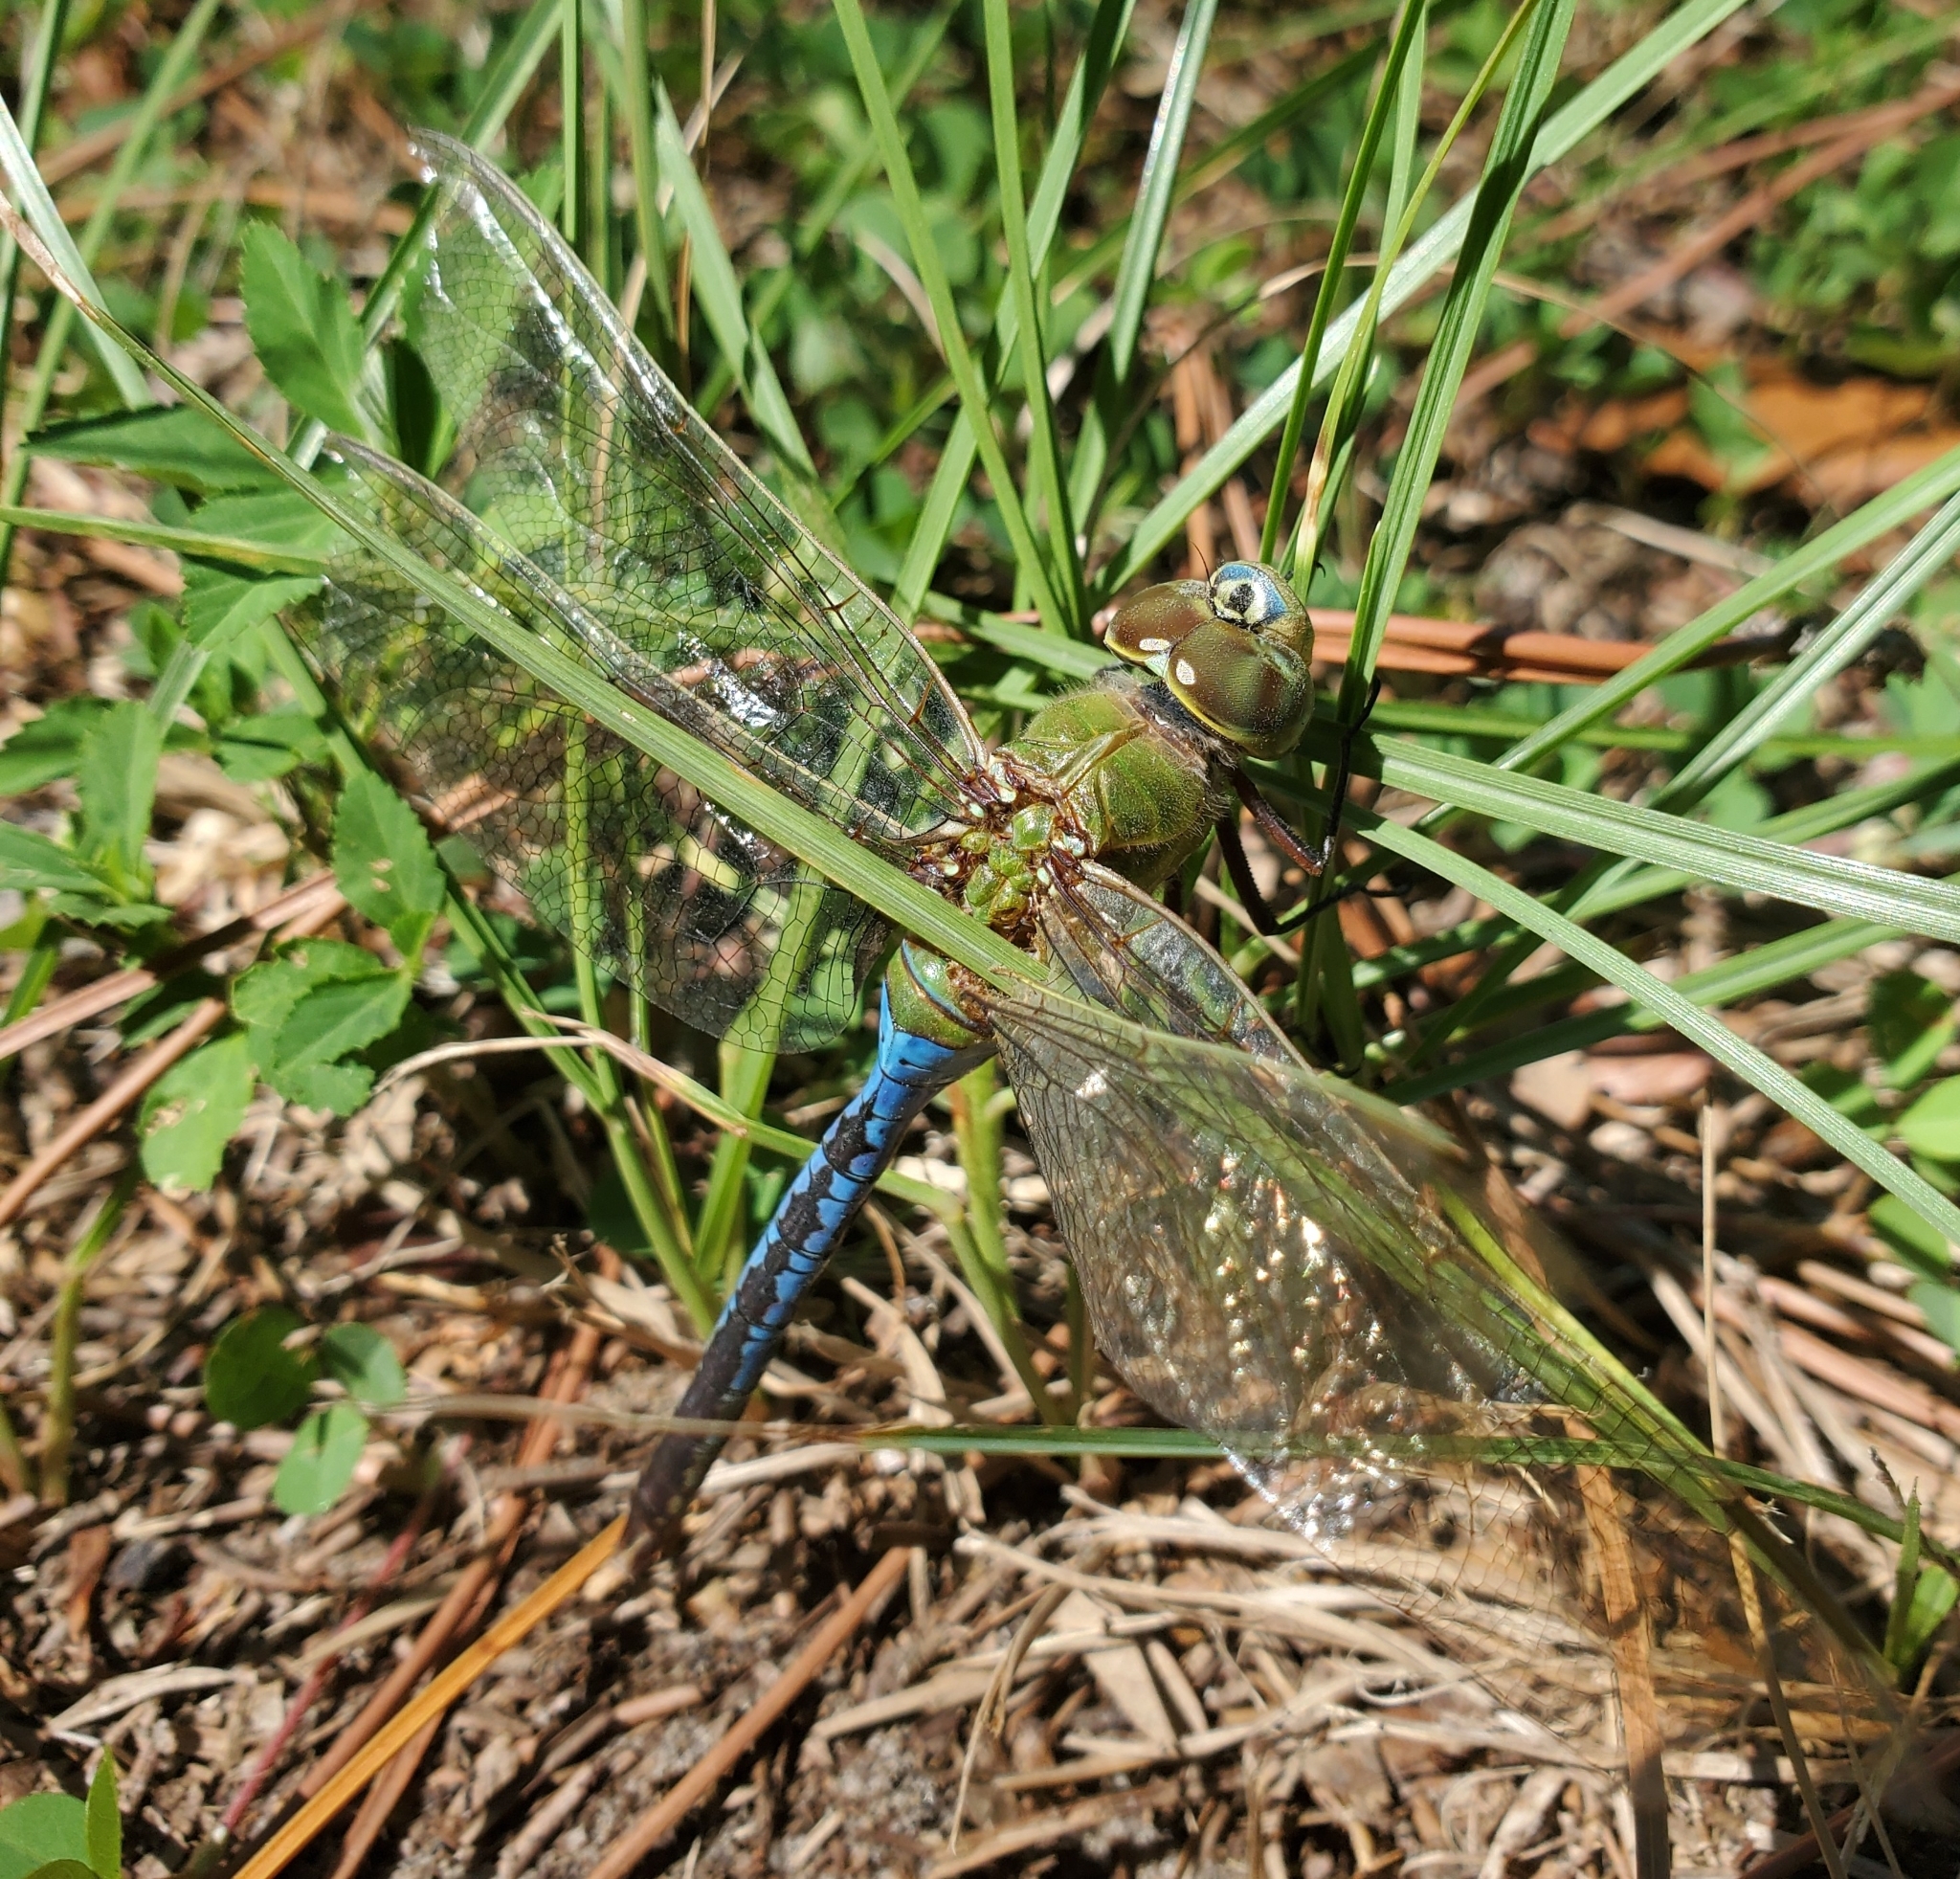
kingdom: Animalia
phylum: Arthropoda
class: Insecta
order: Odonata
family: Aeshnidae
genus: Anax
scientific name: Anax junius
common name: Common green darner
